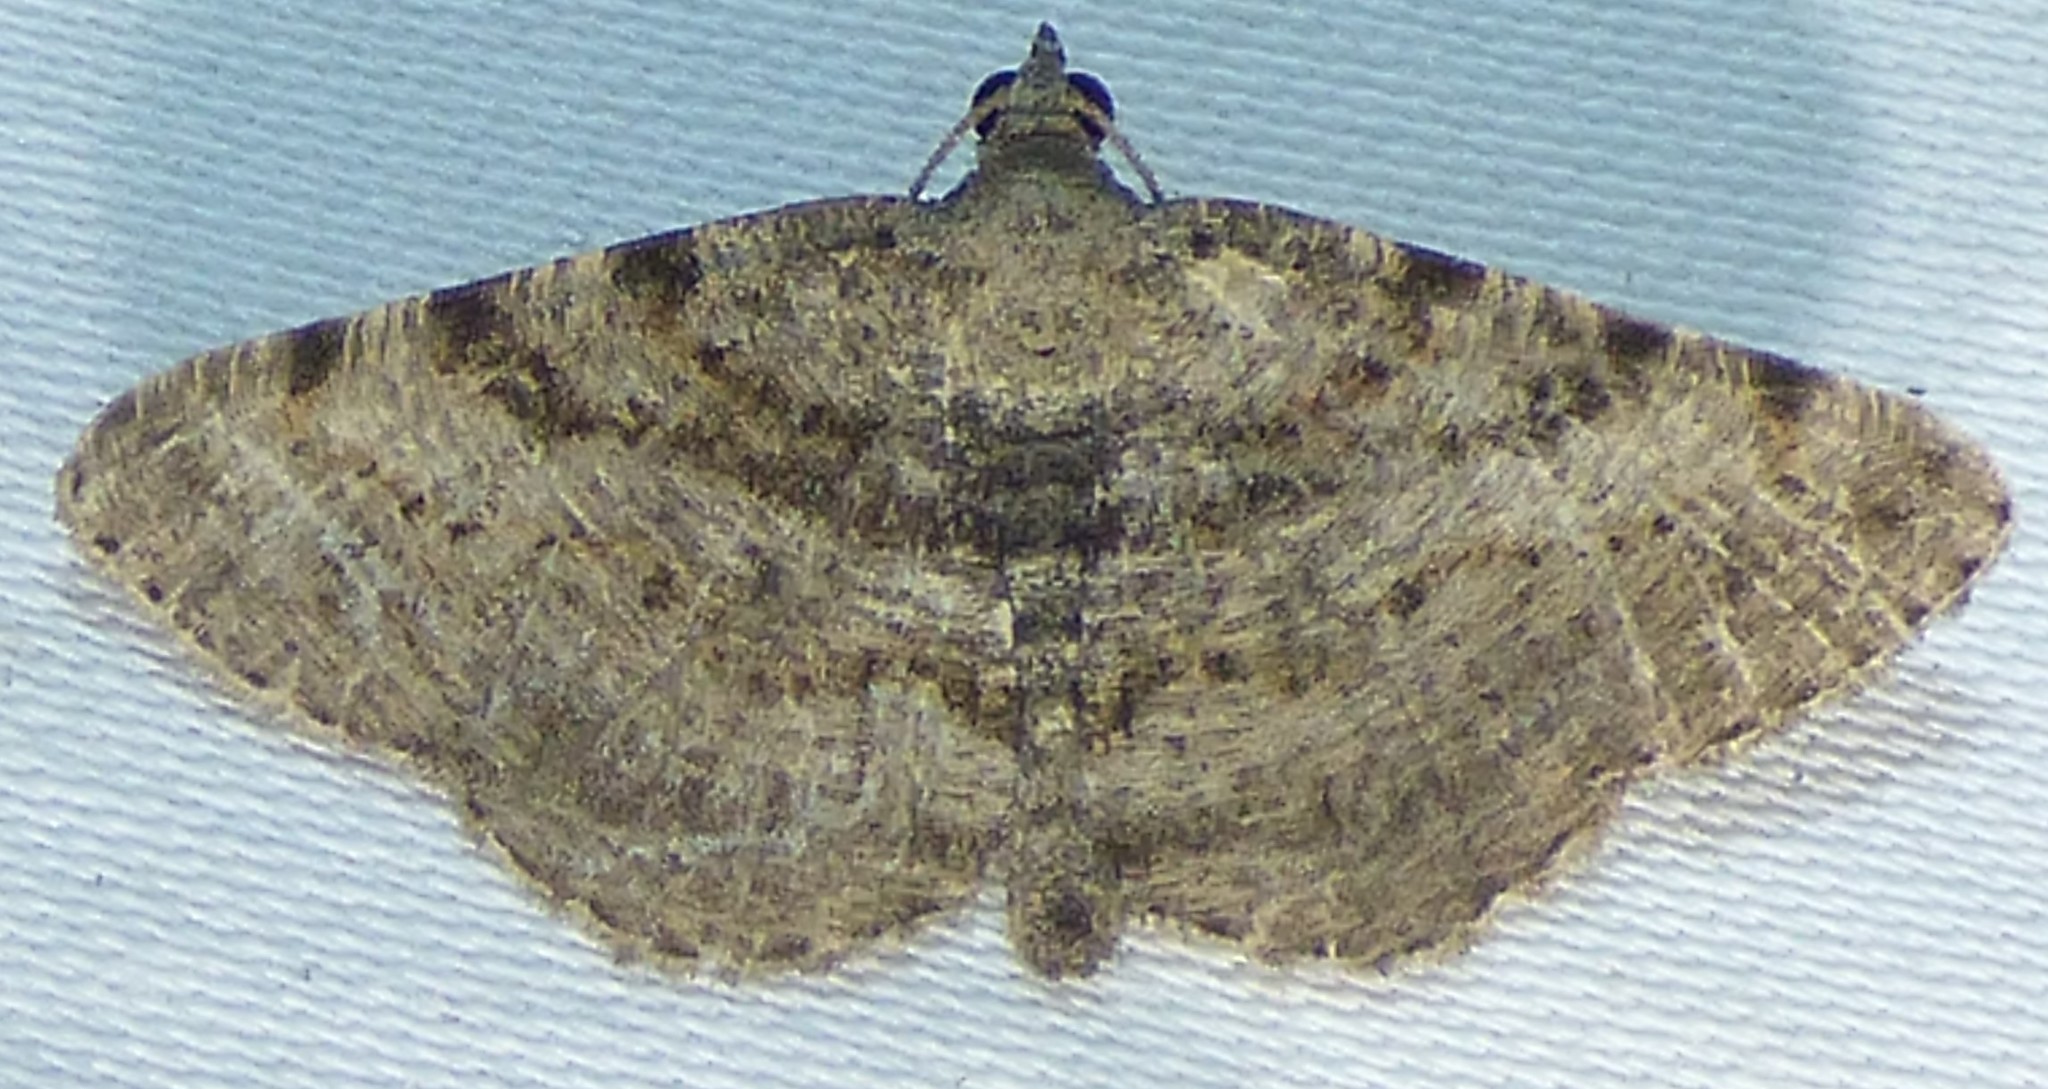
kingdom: Animalia
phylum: Arthropoda
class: Insecta
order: Lepidoptera
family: Geometridae
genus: Digrammia
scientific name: Digrammia gnophosaria
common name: Hollow-spotted angle
